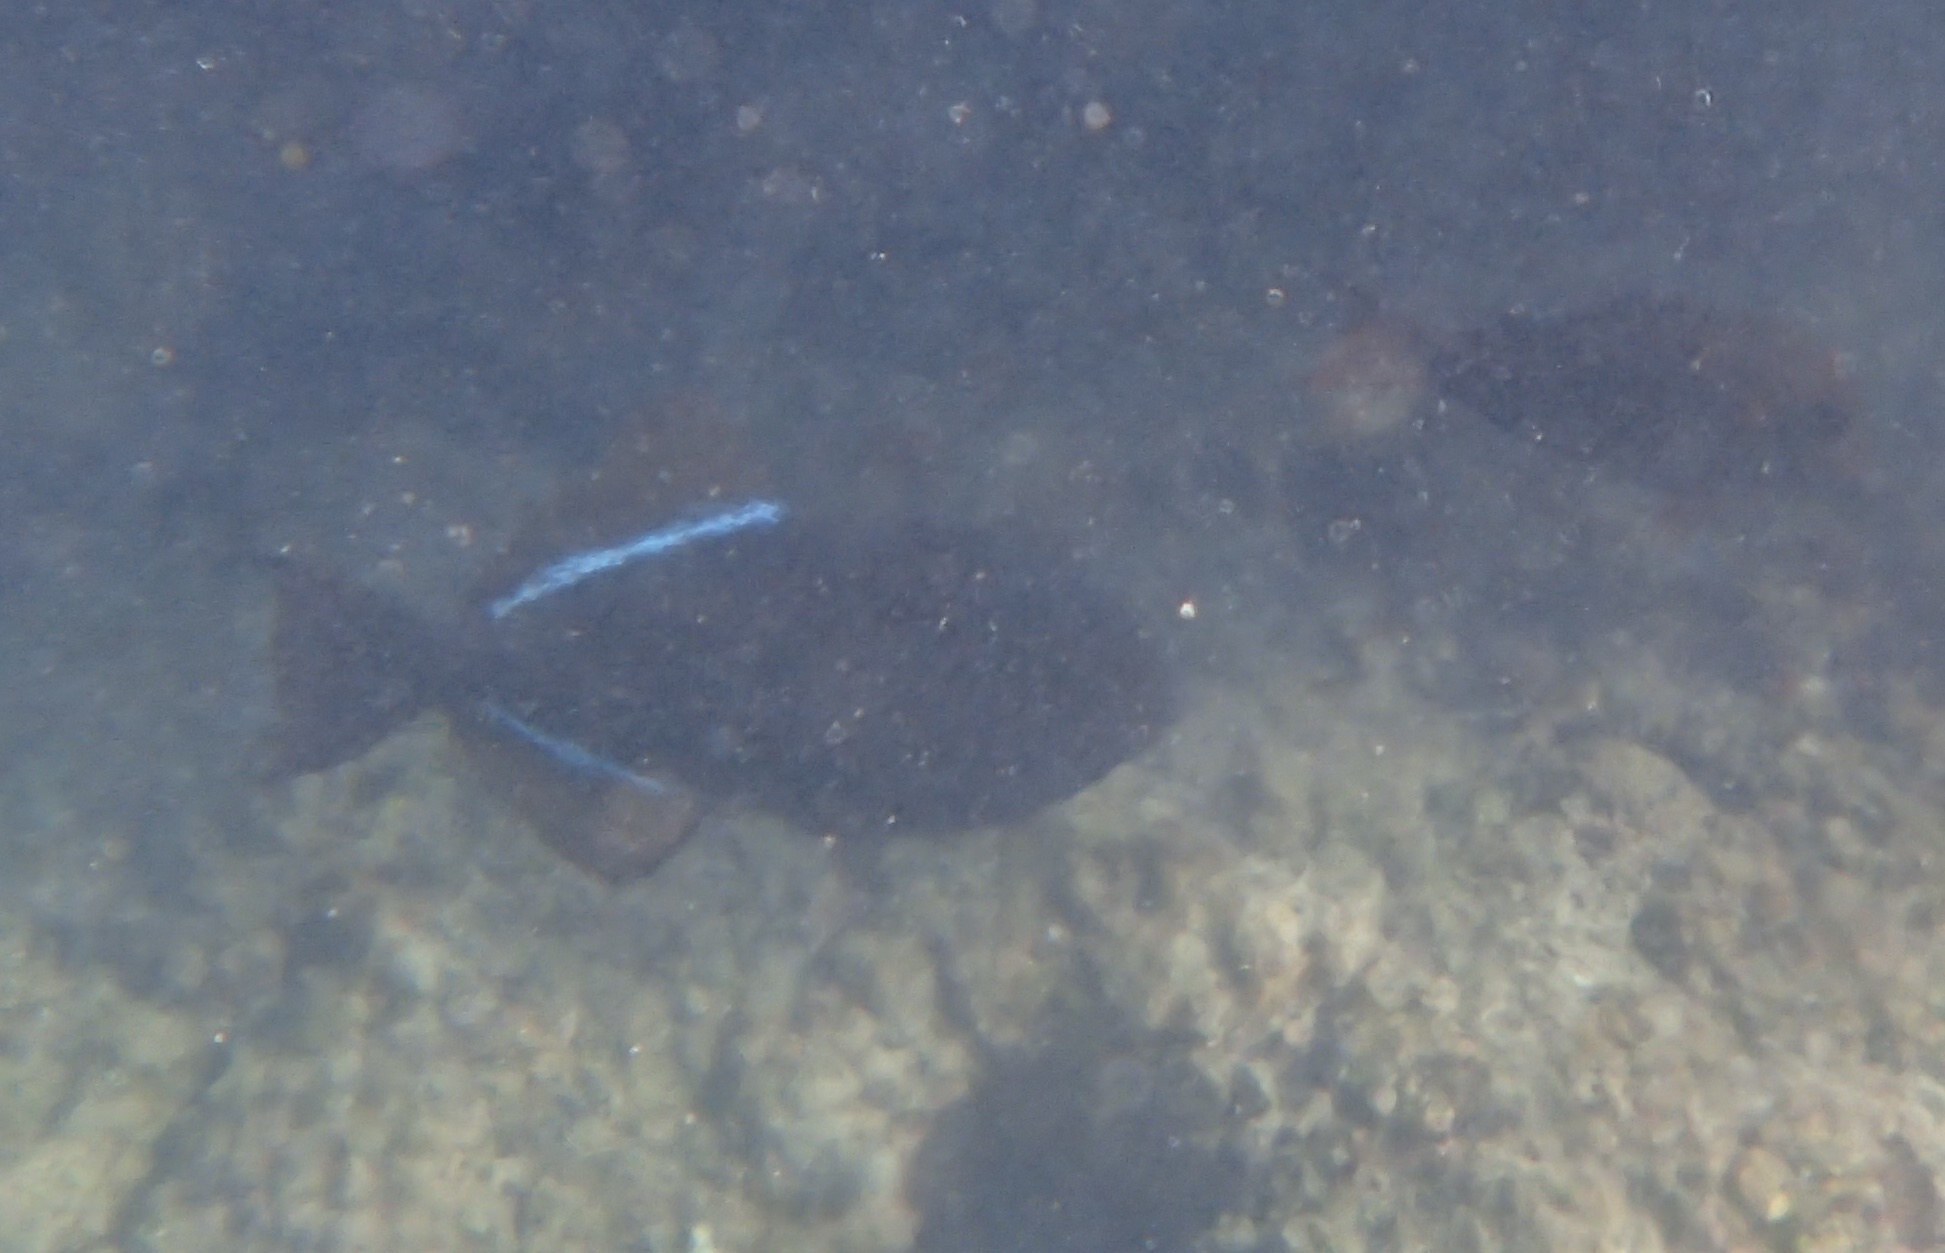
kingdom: Animalia
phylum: Chordata
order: Tetraodontiformes
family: Balistidae
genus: Melichthys
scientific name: Melichthys niger
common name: Black durgon
